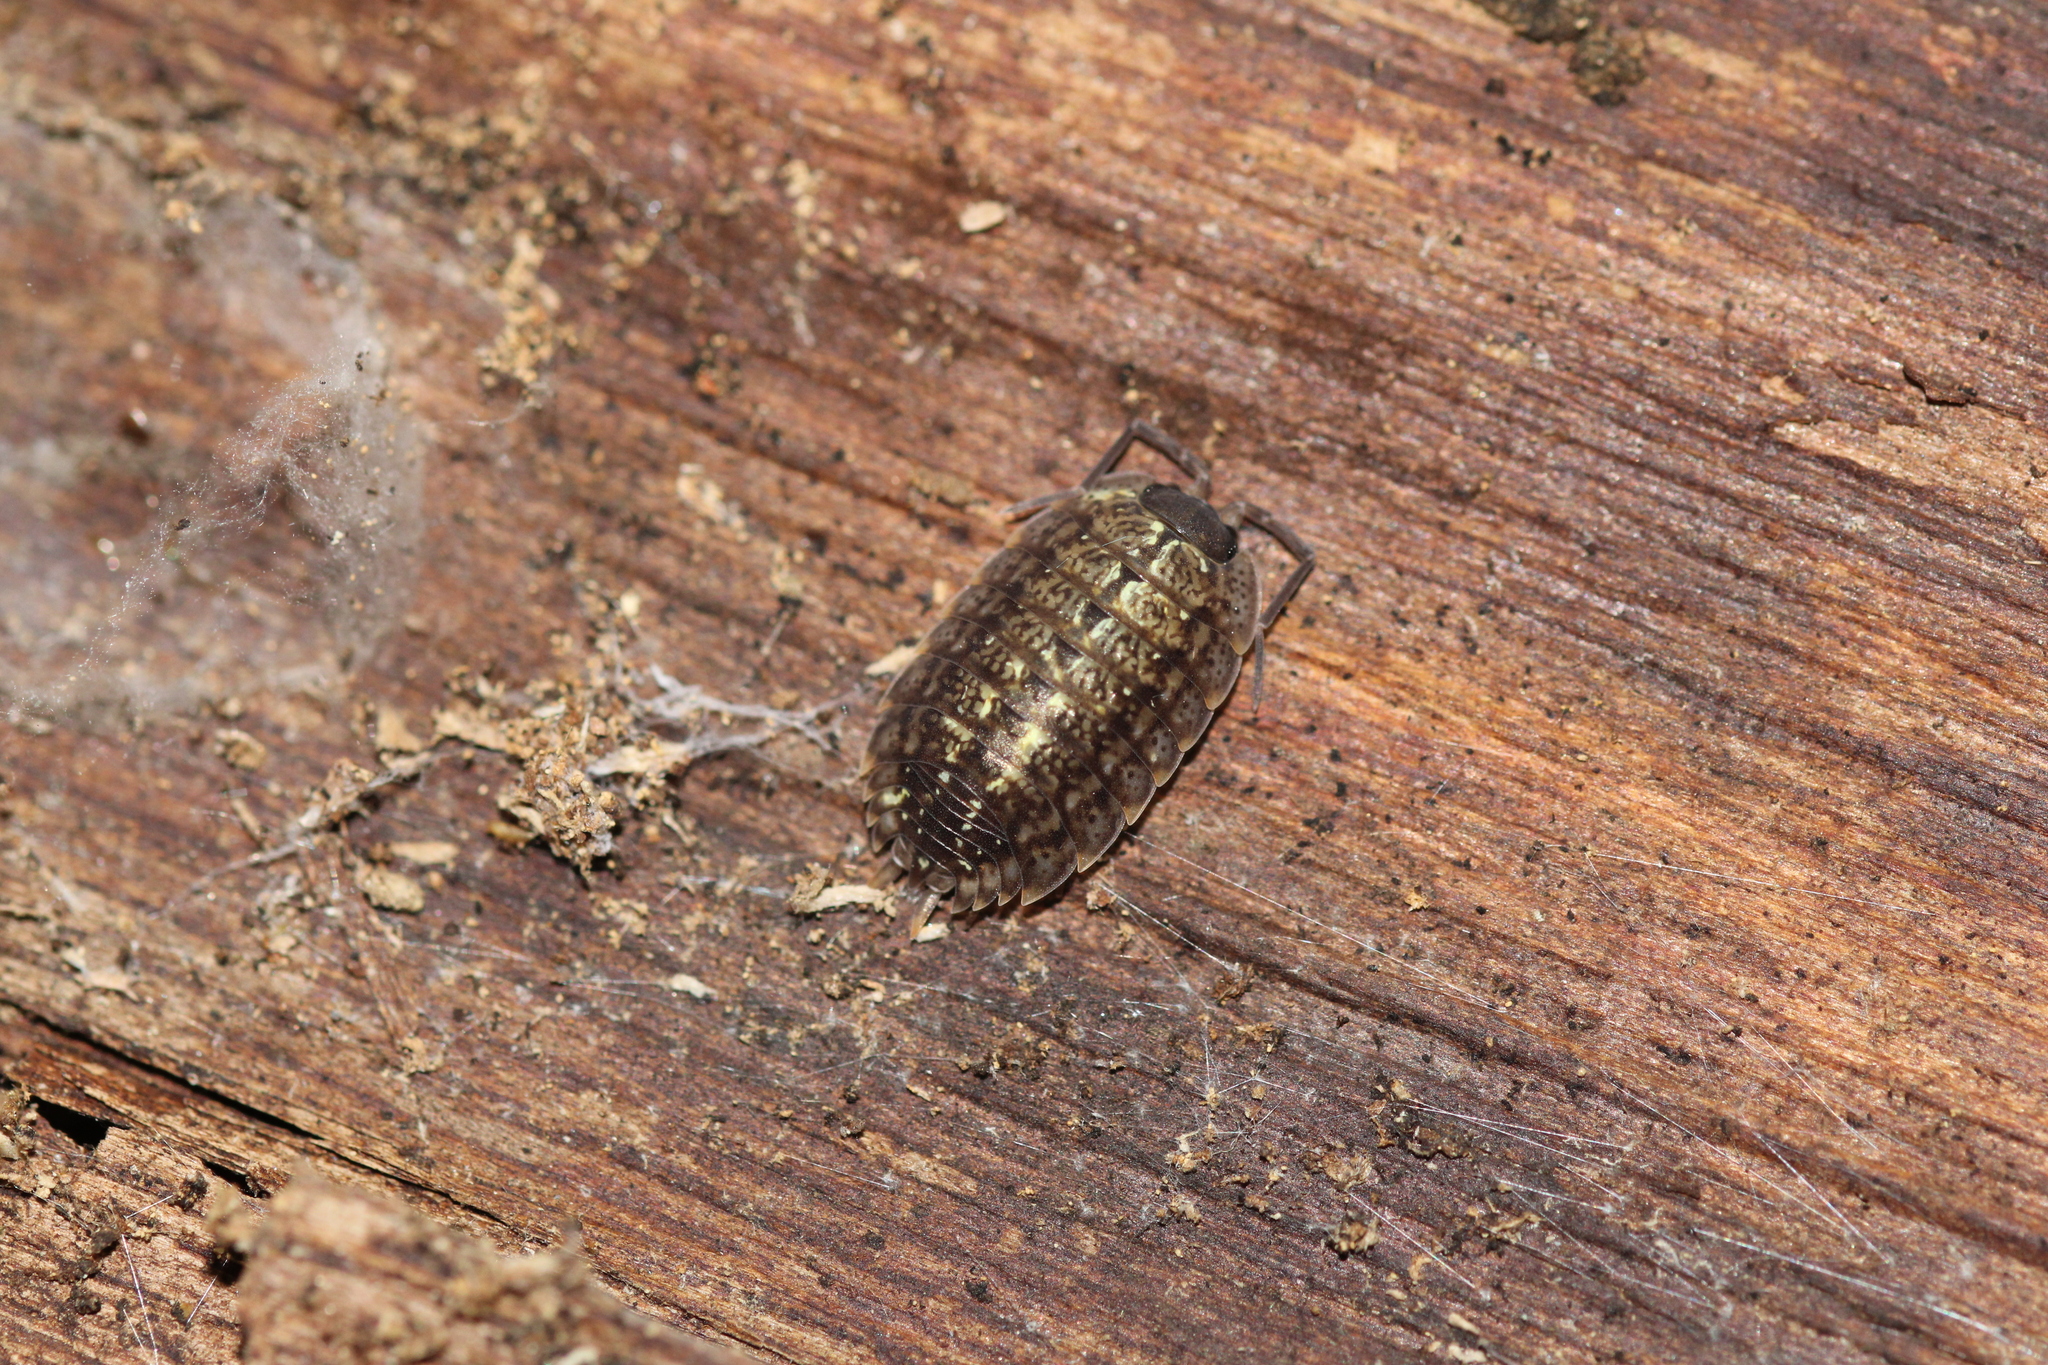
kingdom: Animalia
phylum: Arthropoda
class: Malacostraca
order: Isopoda
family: Porcellionidae
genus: Porcellio
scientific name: Porcellio monticola
